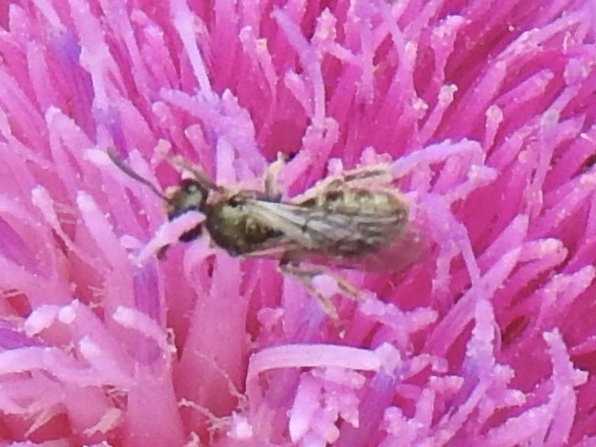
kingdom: Animalia
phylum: Arthropoda
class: Insecta
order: Hymenoptera
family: Halictidae
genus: Dialictus
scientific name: Dialictus
